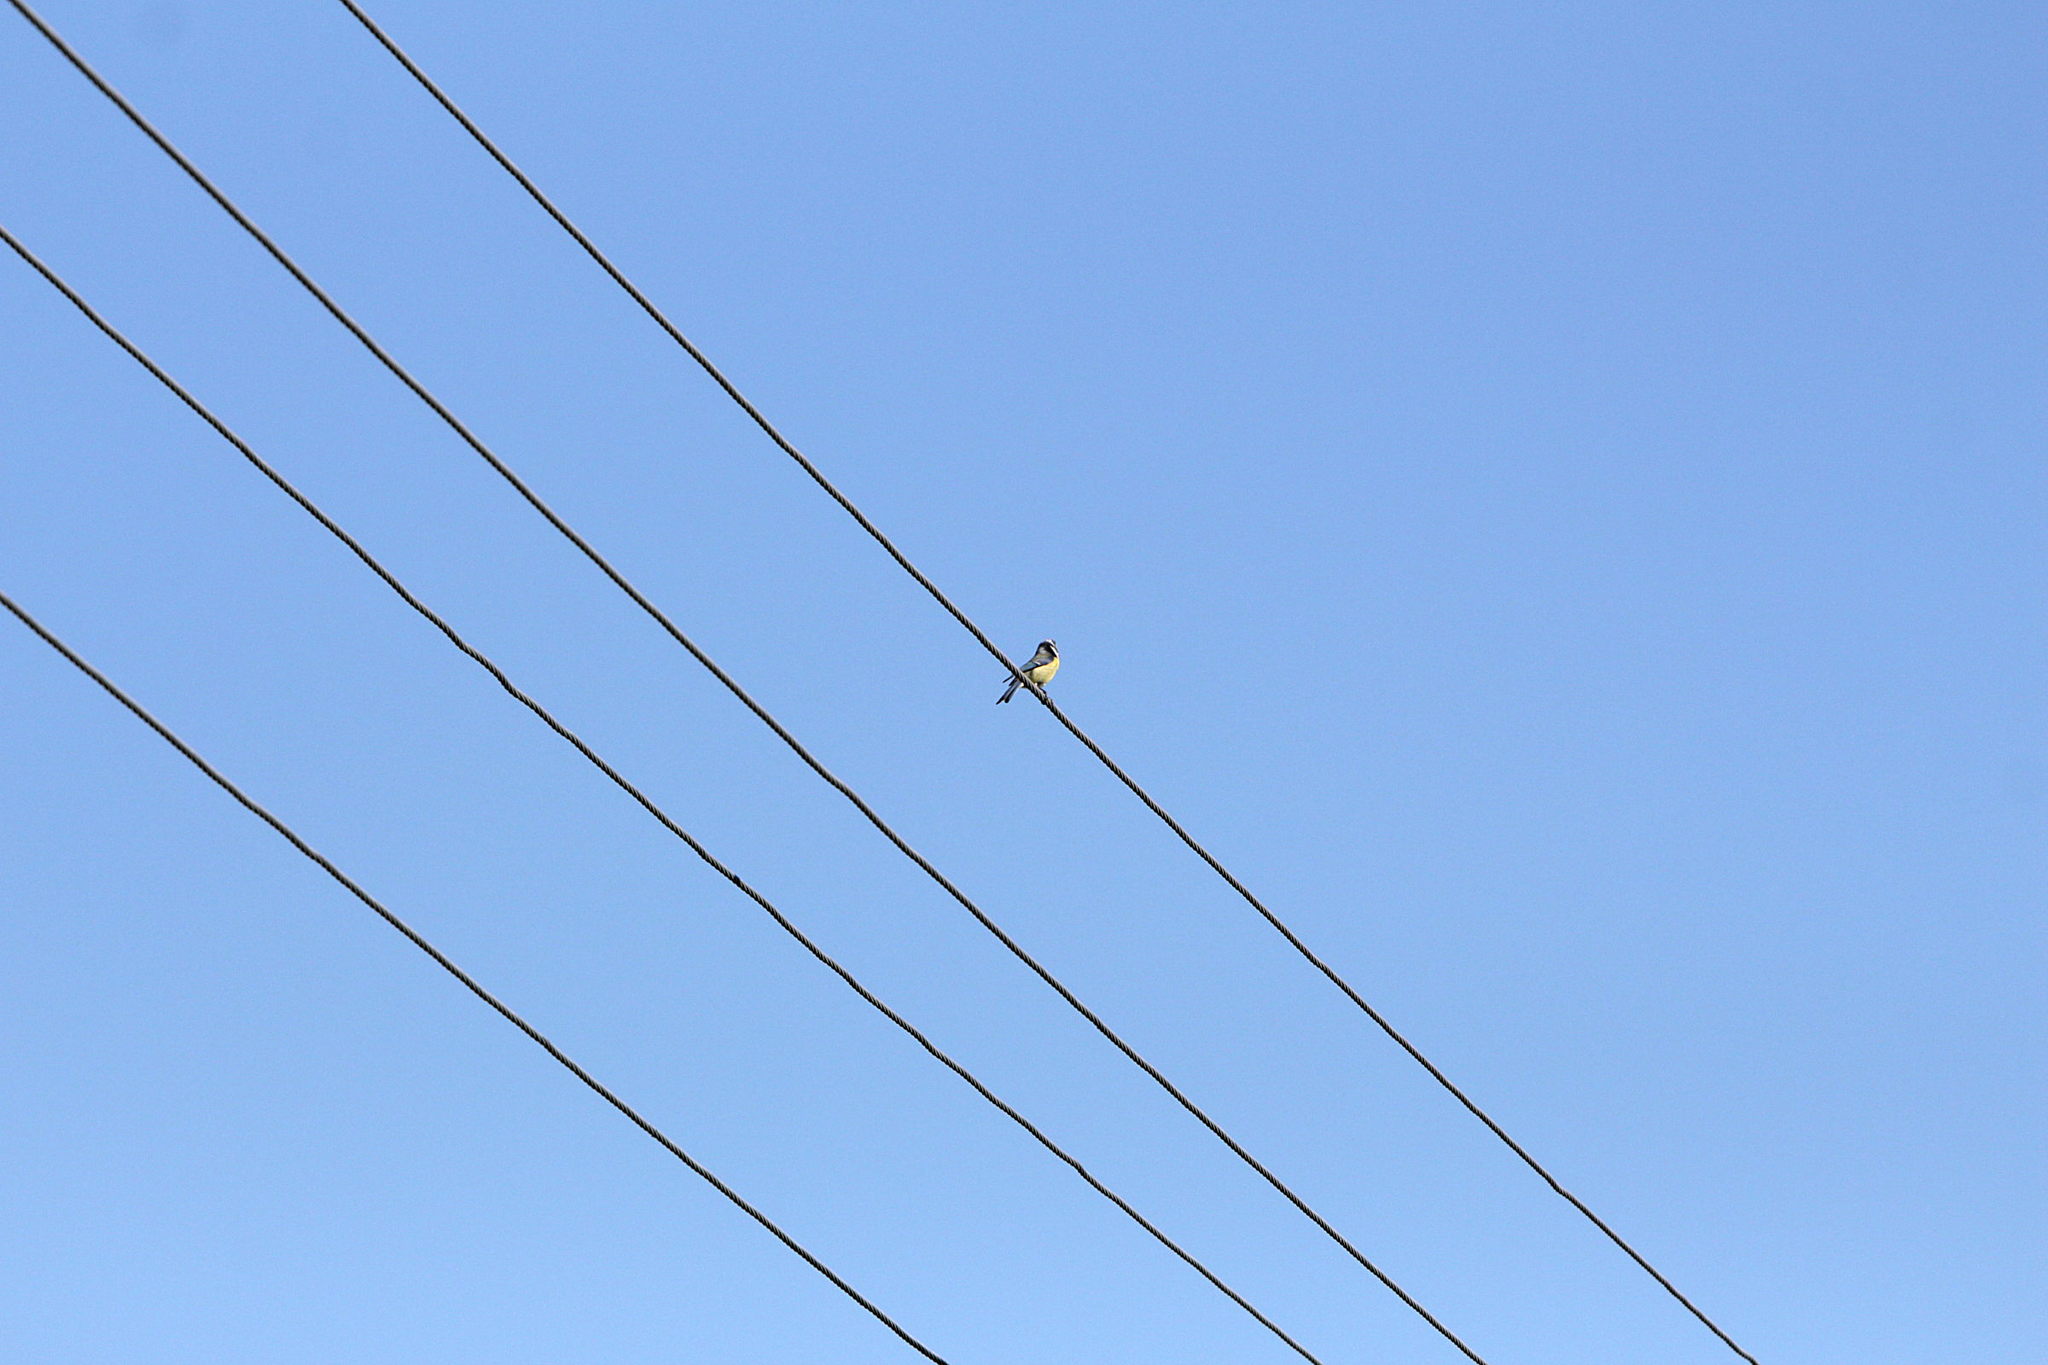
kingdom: Animalia
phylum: Chordata
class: Aves
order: Passeriformes
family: Paridae
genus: Cyanistes
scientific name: Cyanistes caeruleus
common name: Eurasian blue tit
